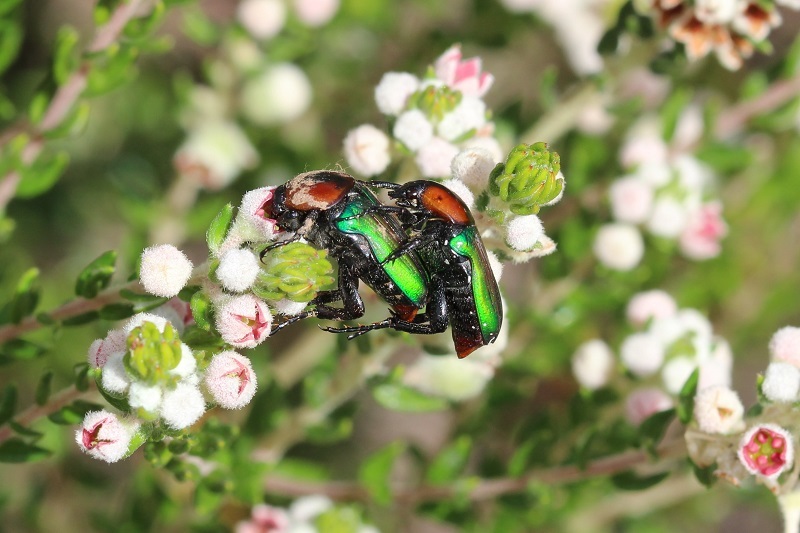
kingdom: Animalia
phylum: Arthropoda
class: Insecta
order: Coleoptera
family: Scarabaeidae
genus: Leucocelis
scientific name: Leucocelis amethystina
